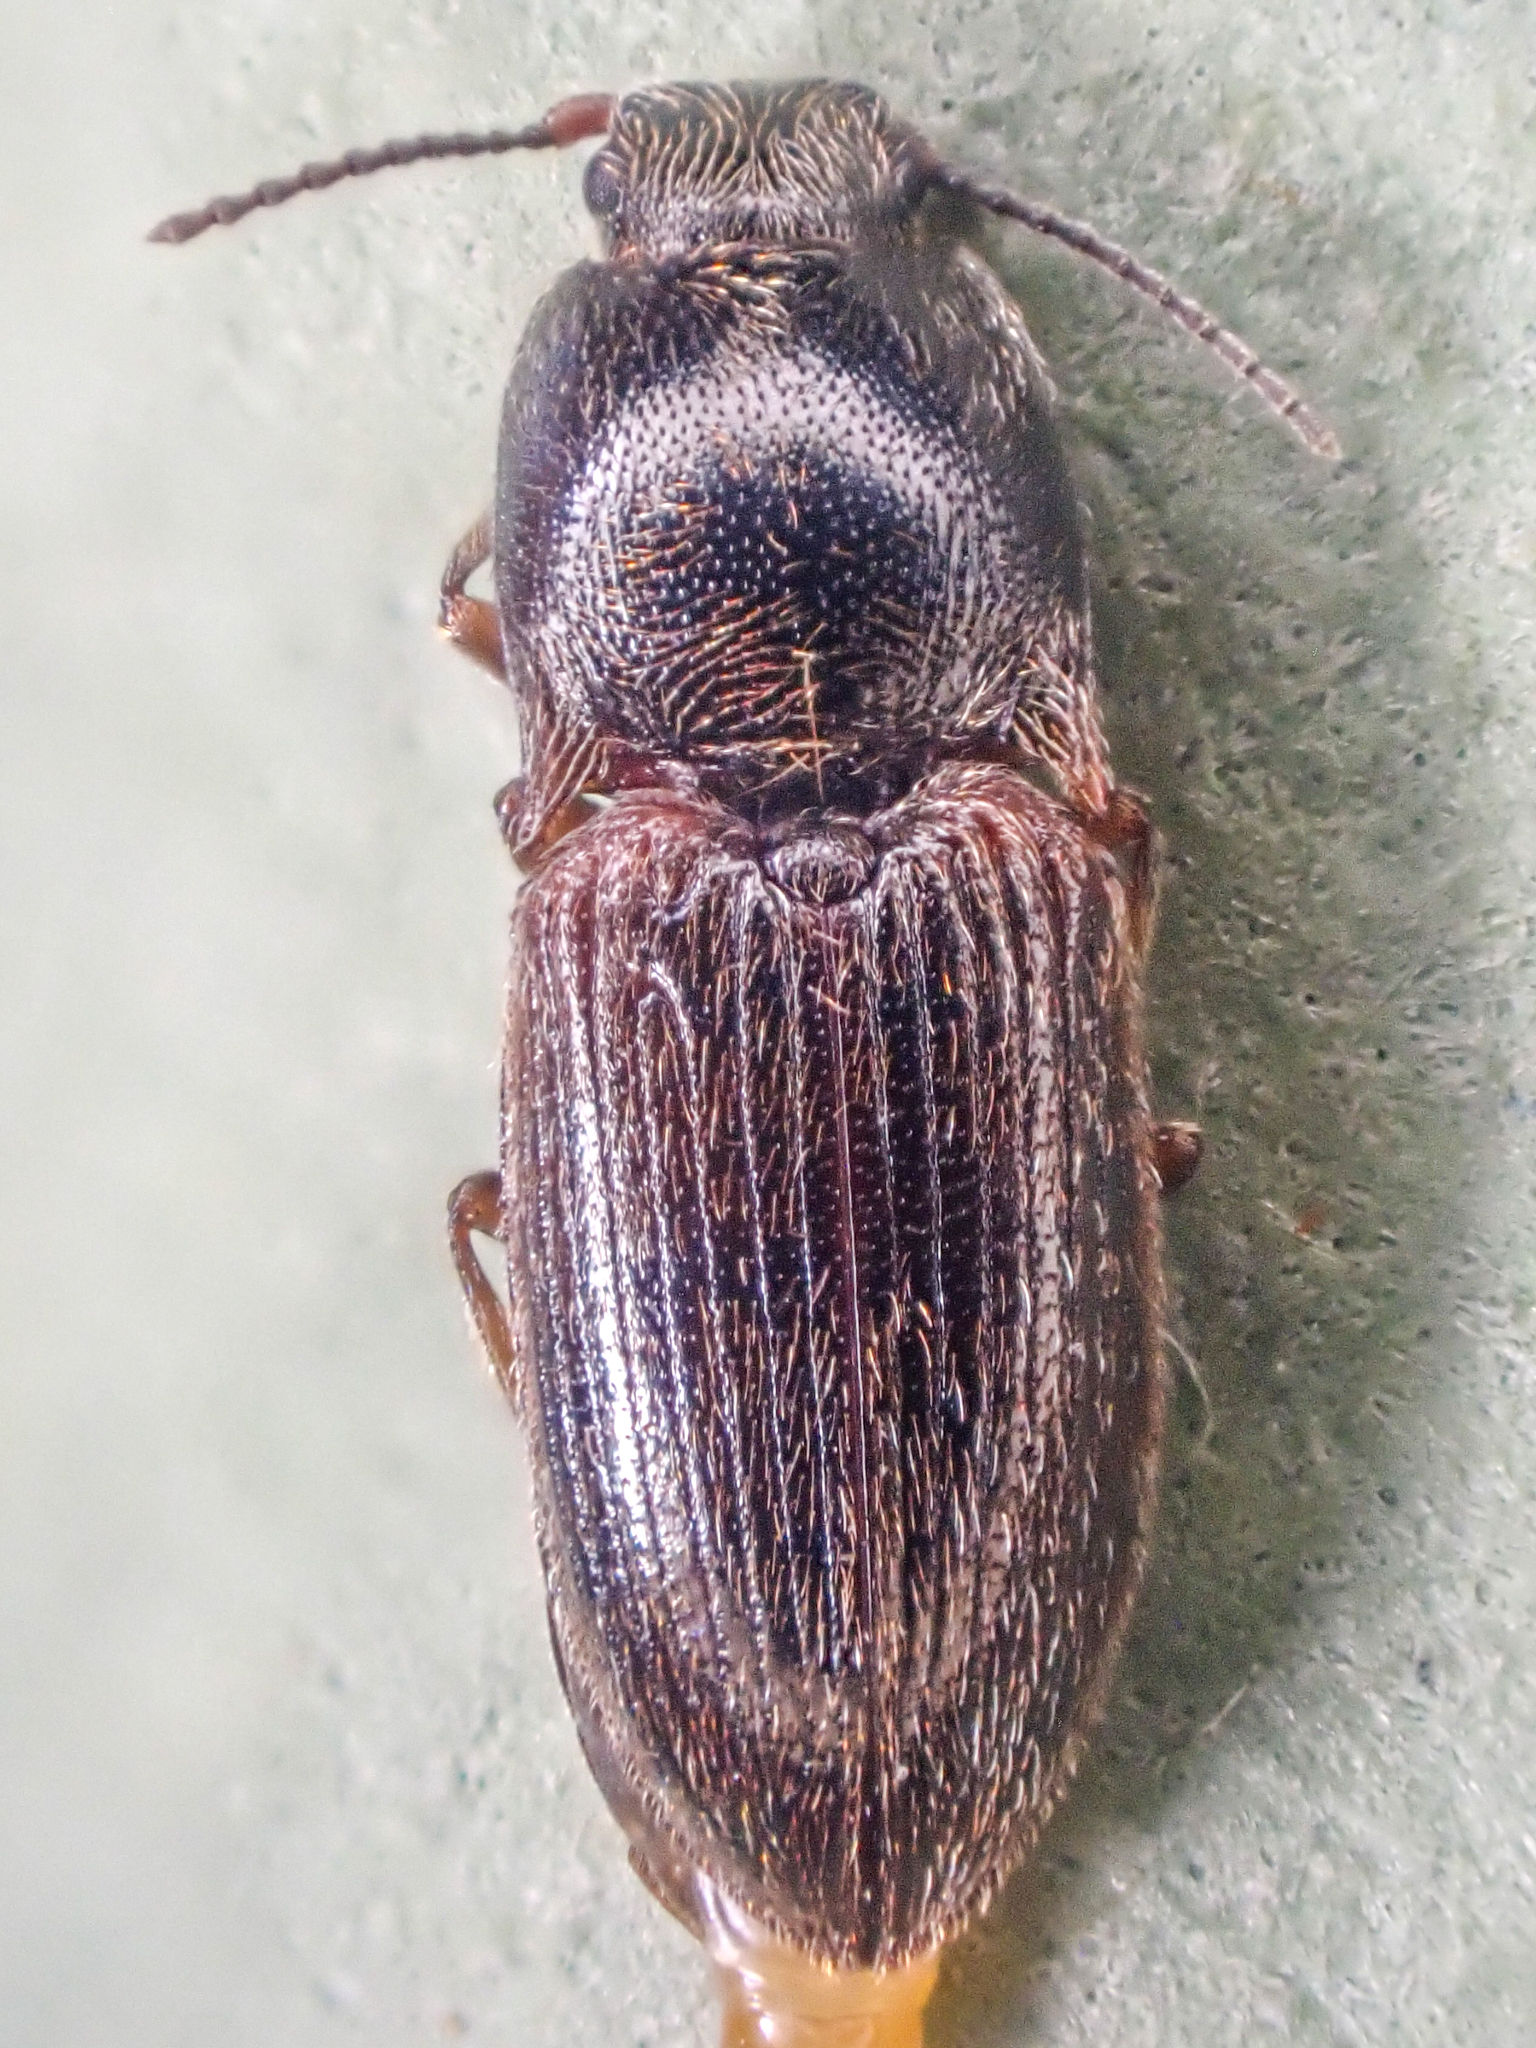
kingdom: Animalia
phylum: Arthropoda
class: Insecta
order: Coleoptera
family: Elateridae
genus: Hypnoidus
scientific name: Hypnoidus bicolor
